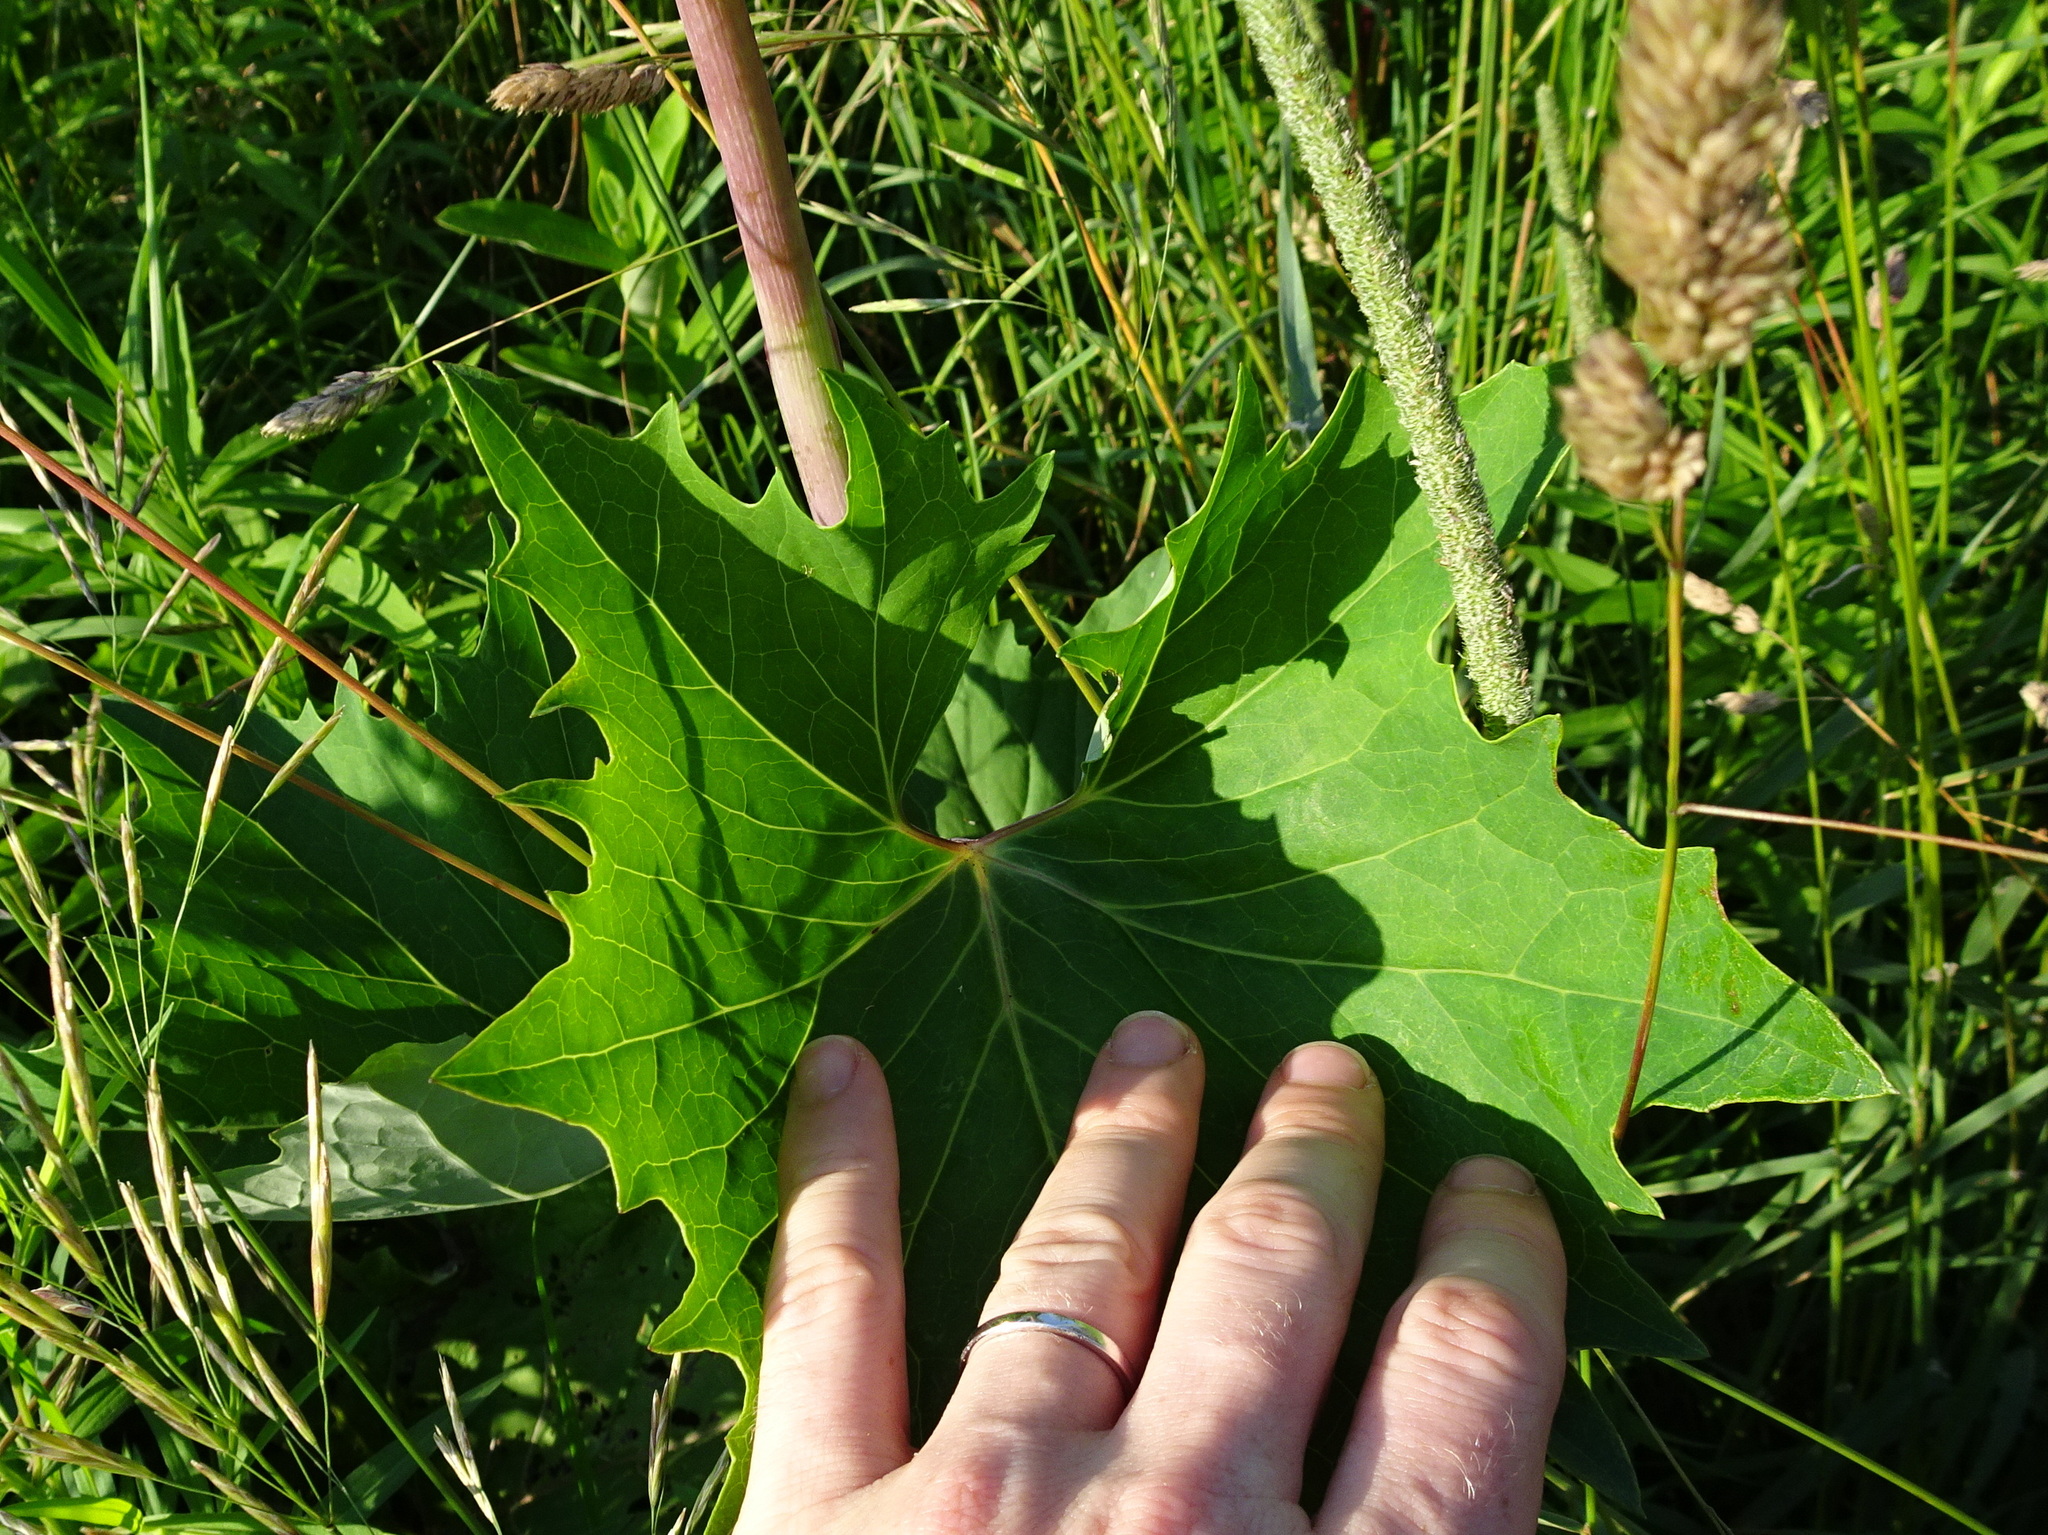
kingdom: Plantae
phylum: Tracheophyta
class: Magnoliopsida
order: Asterales
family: Asteraceae
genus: Arnoglossum
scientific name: Arnoglossum atriplicifolium
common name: Pale indian-plantain
